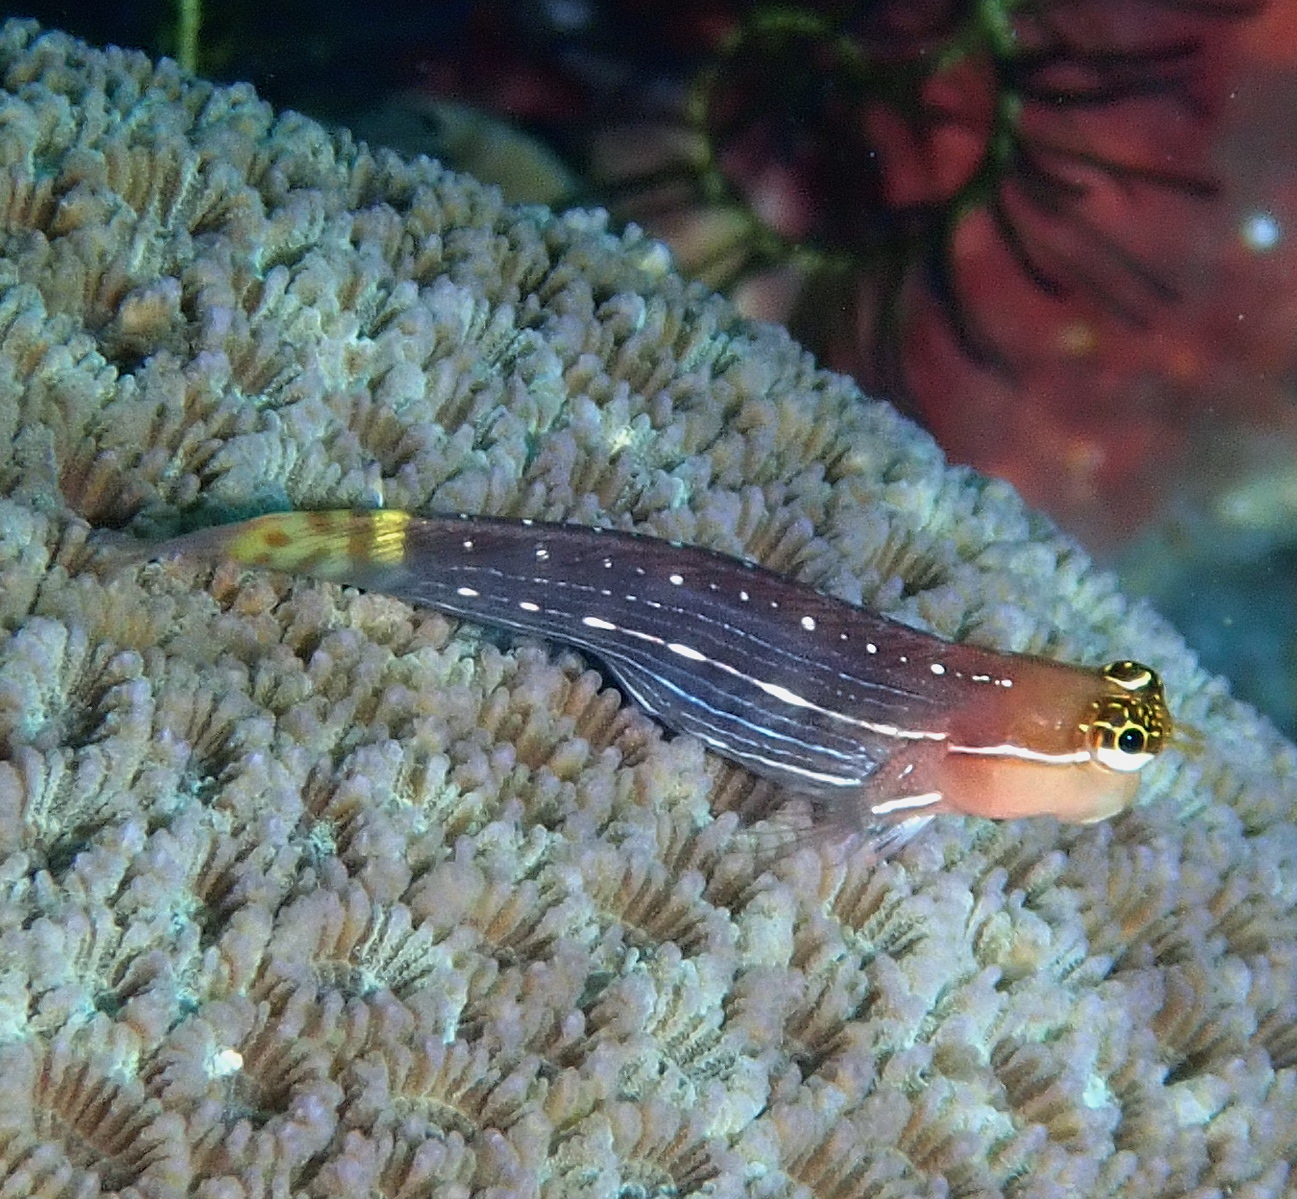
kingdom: Animalia
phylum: Chordata
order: Perciformes
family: Blenniidae
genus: Ecsenius
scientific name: Ecsenius pictus
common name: Pictus blenny
